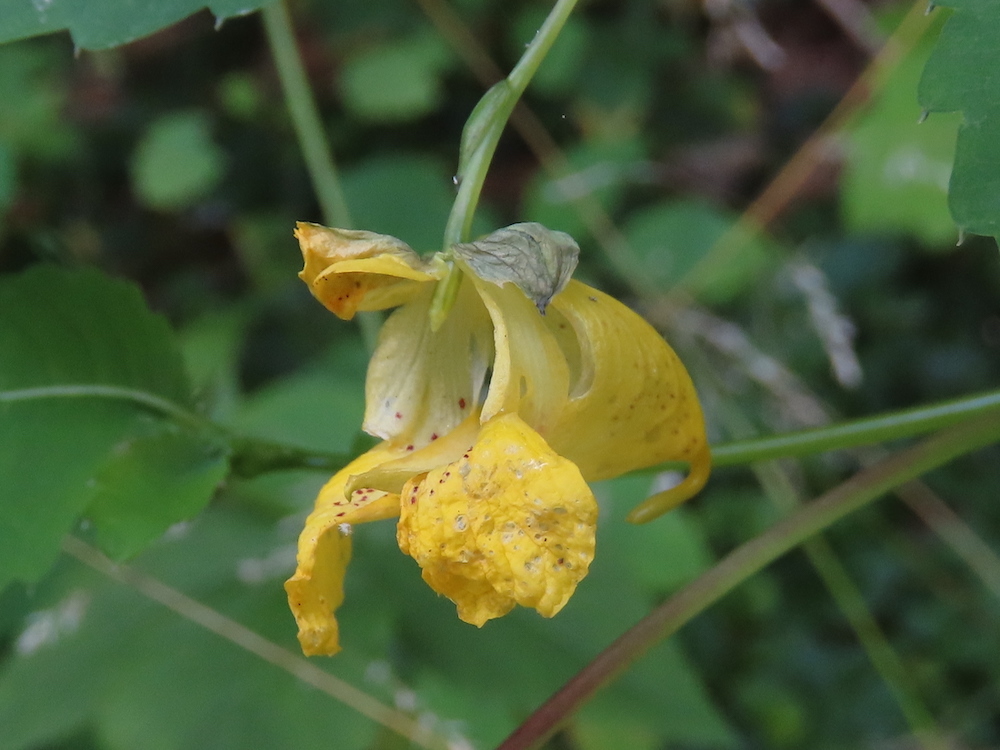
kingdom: Plantae
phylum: Tracheophyta
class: Magnoliopsida
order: Ericales
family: Balsaminaceae
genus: Impatiens
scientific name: Impatiens pallida
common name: Pale snapweed
